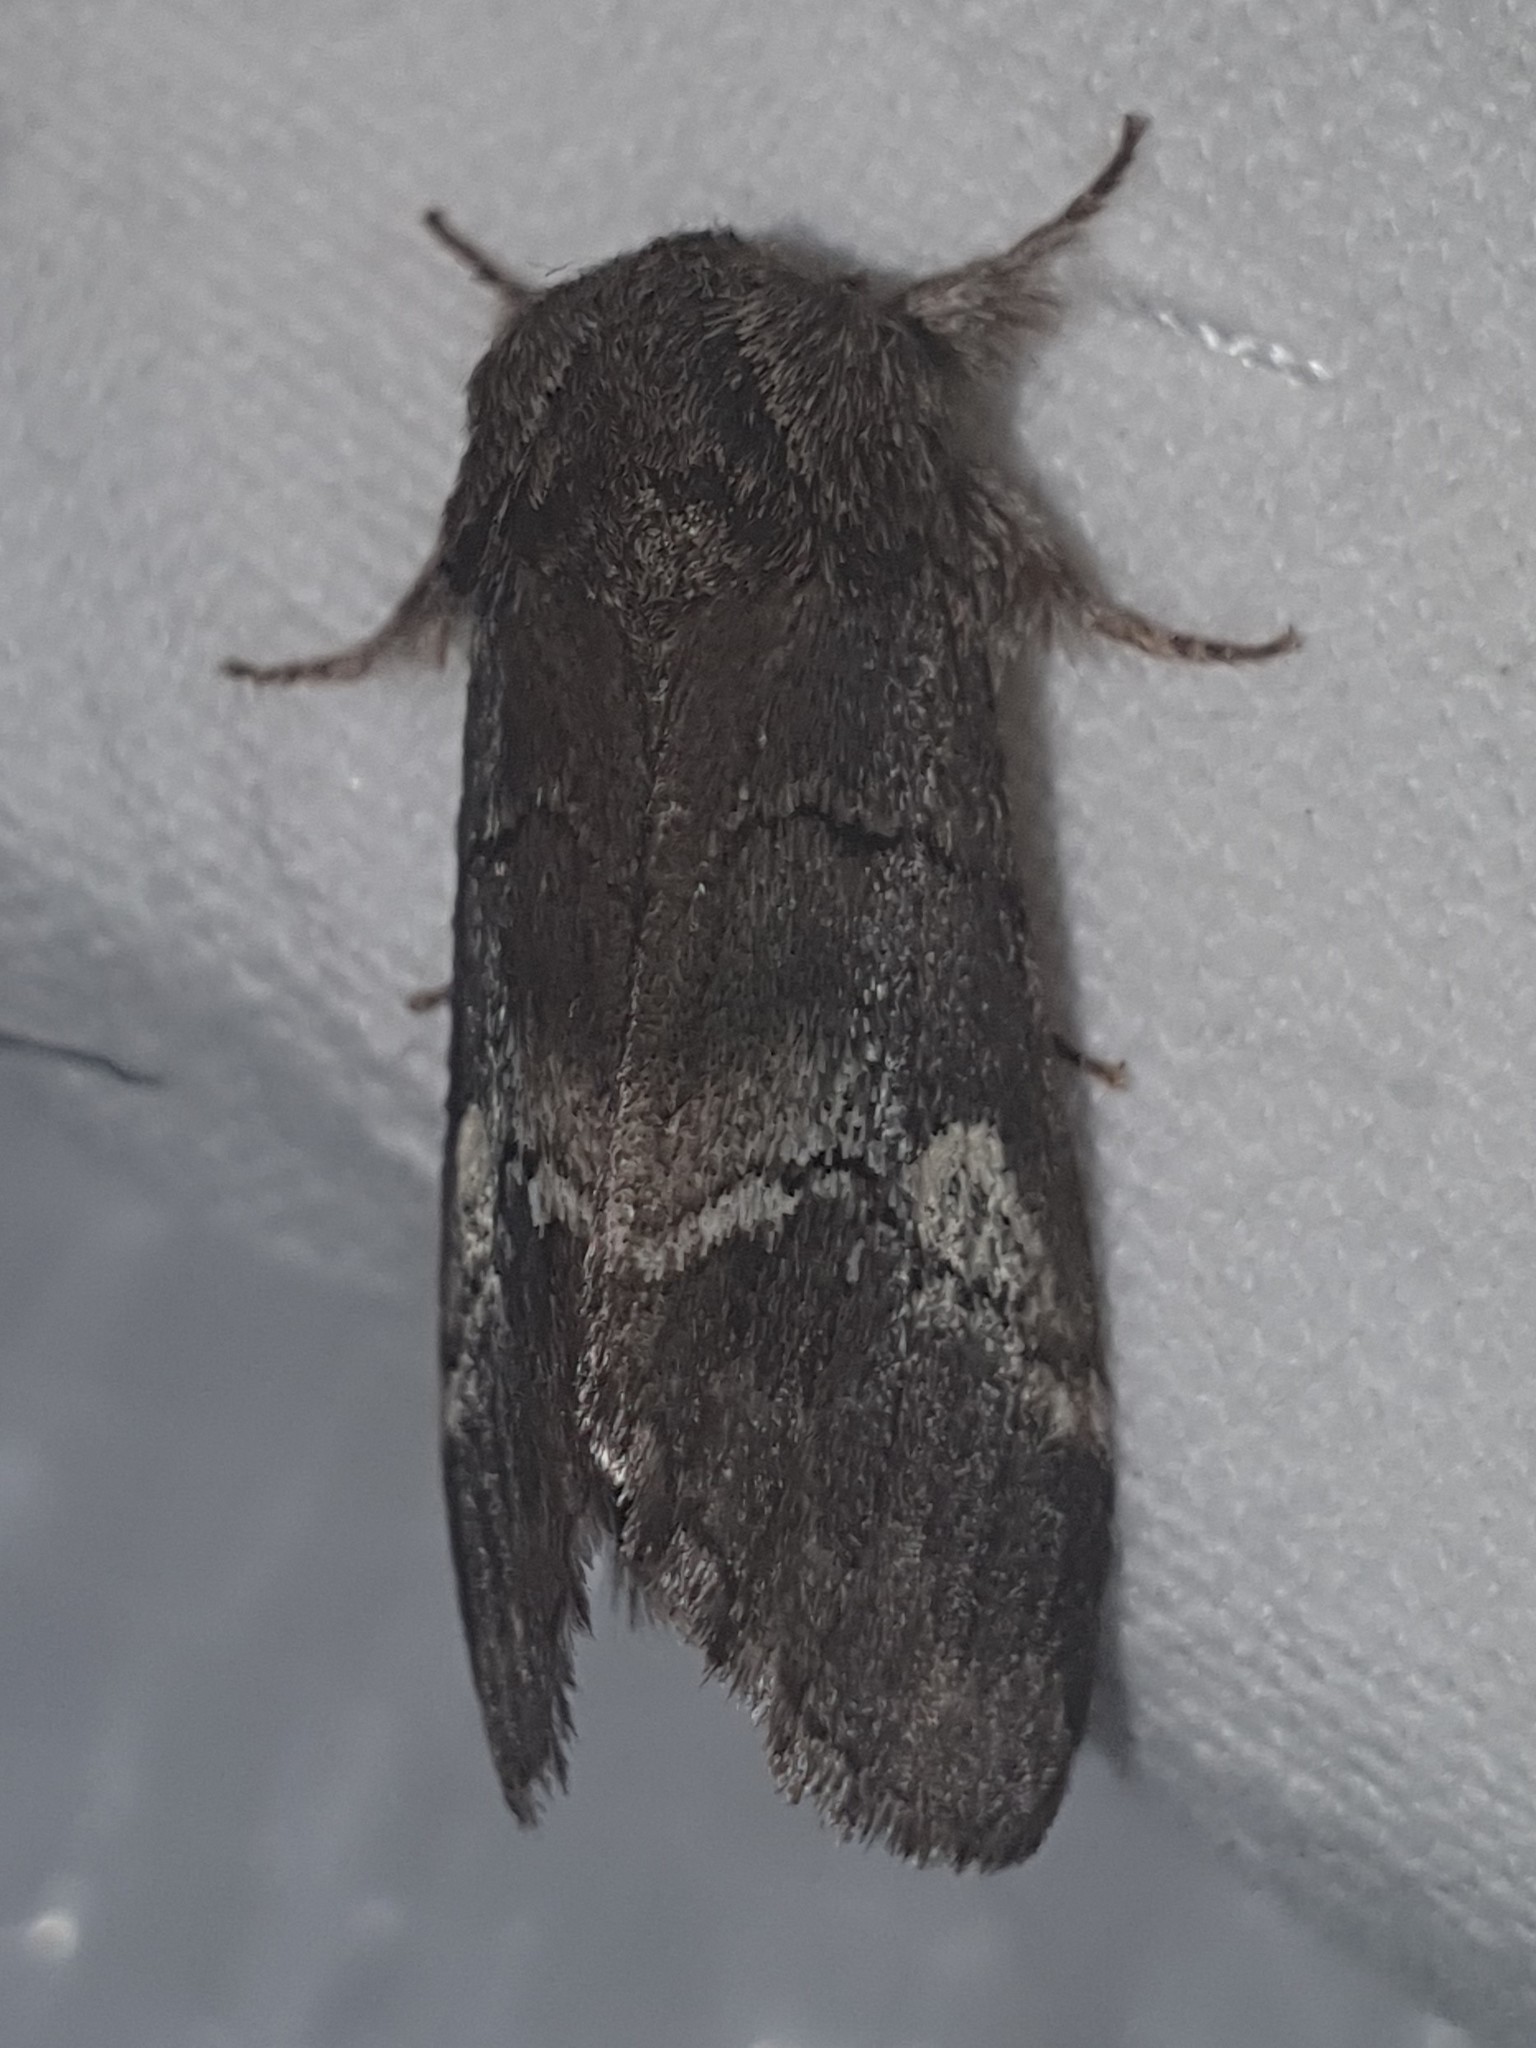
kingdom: Animalia
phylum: Arthropoda
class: Insecta
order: Lepidoptera
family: Notodontidae
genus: Drymonia
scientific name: Drymonia querna
